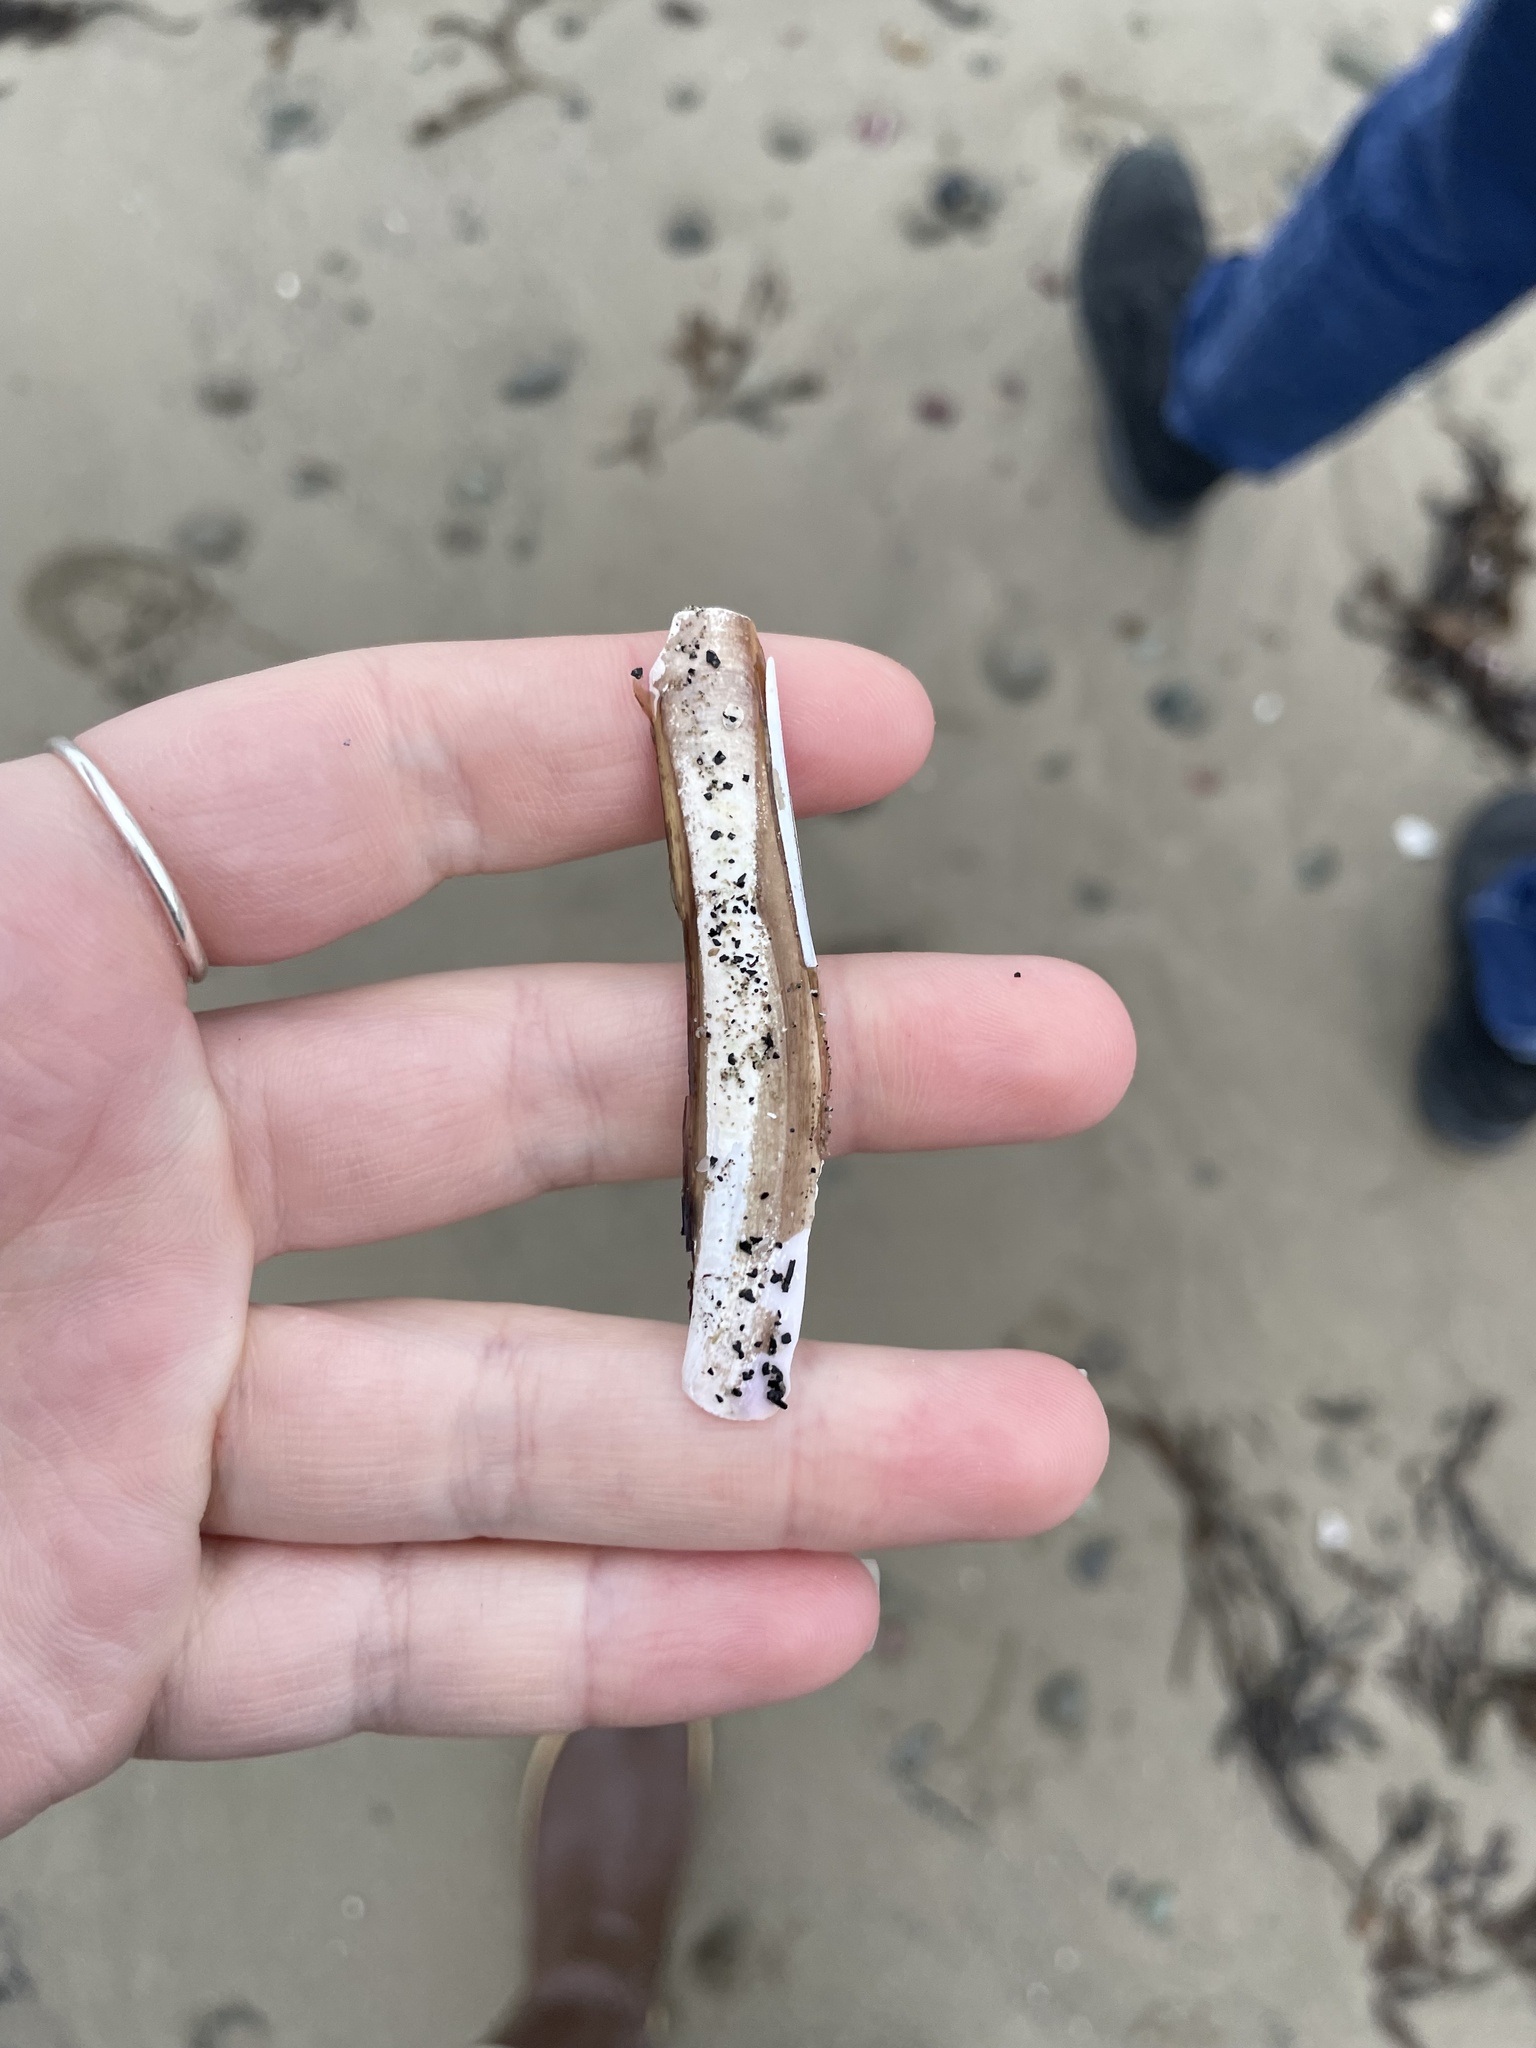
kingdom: Animalia
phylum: Mollusca
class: Bivalvia
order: Adapedonta
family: Pharidae
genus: Ensis
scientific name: Ensis leei
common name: American jack knife clam
